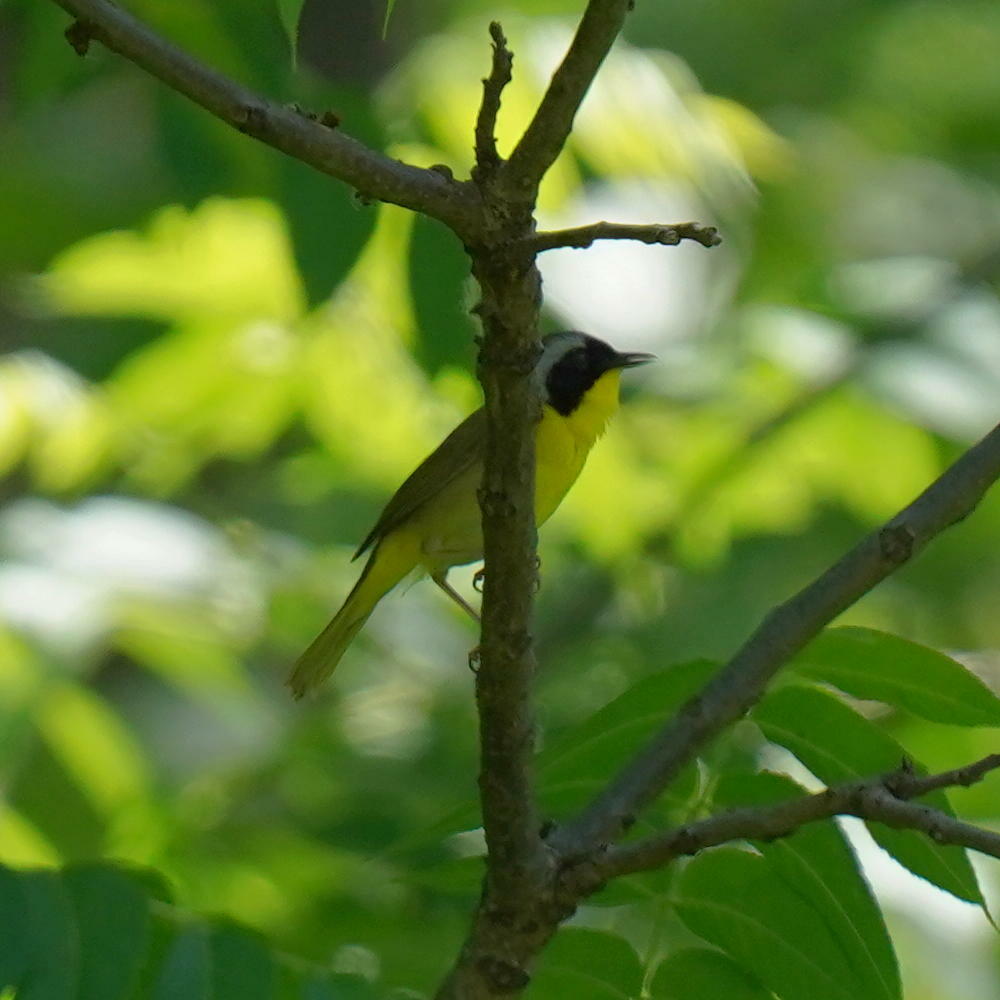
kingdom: Animalia
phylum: Chordata
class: Aves
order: Passeriformes
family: Parulidae
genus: Geothlypis
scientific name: Geothlypis trichas
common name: Common yellowthroat
